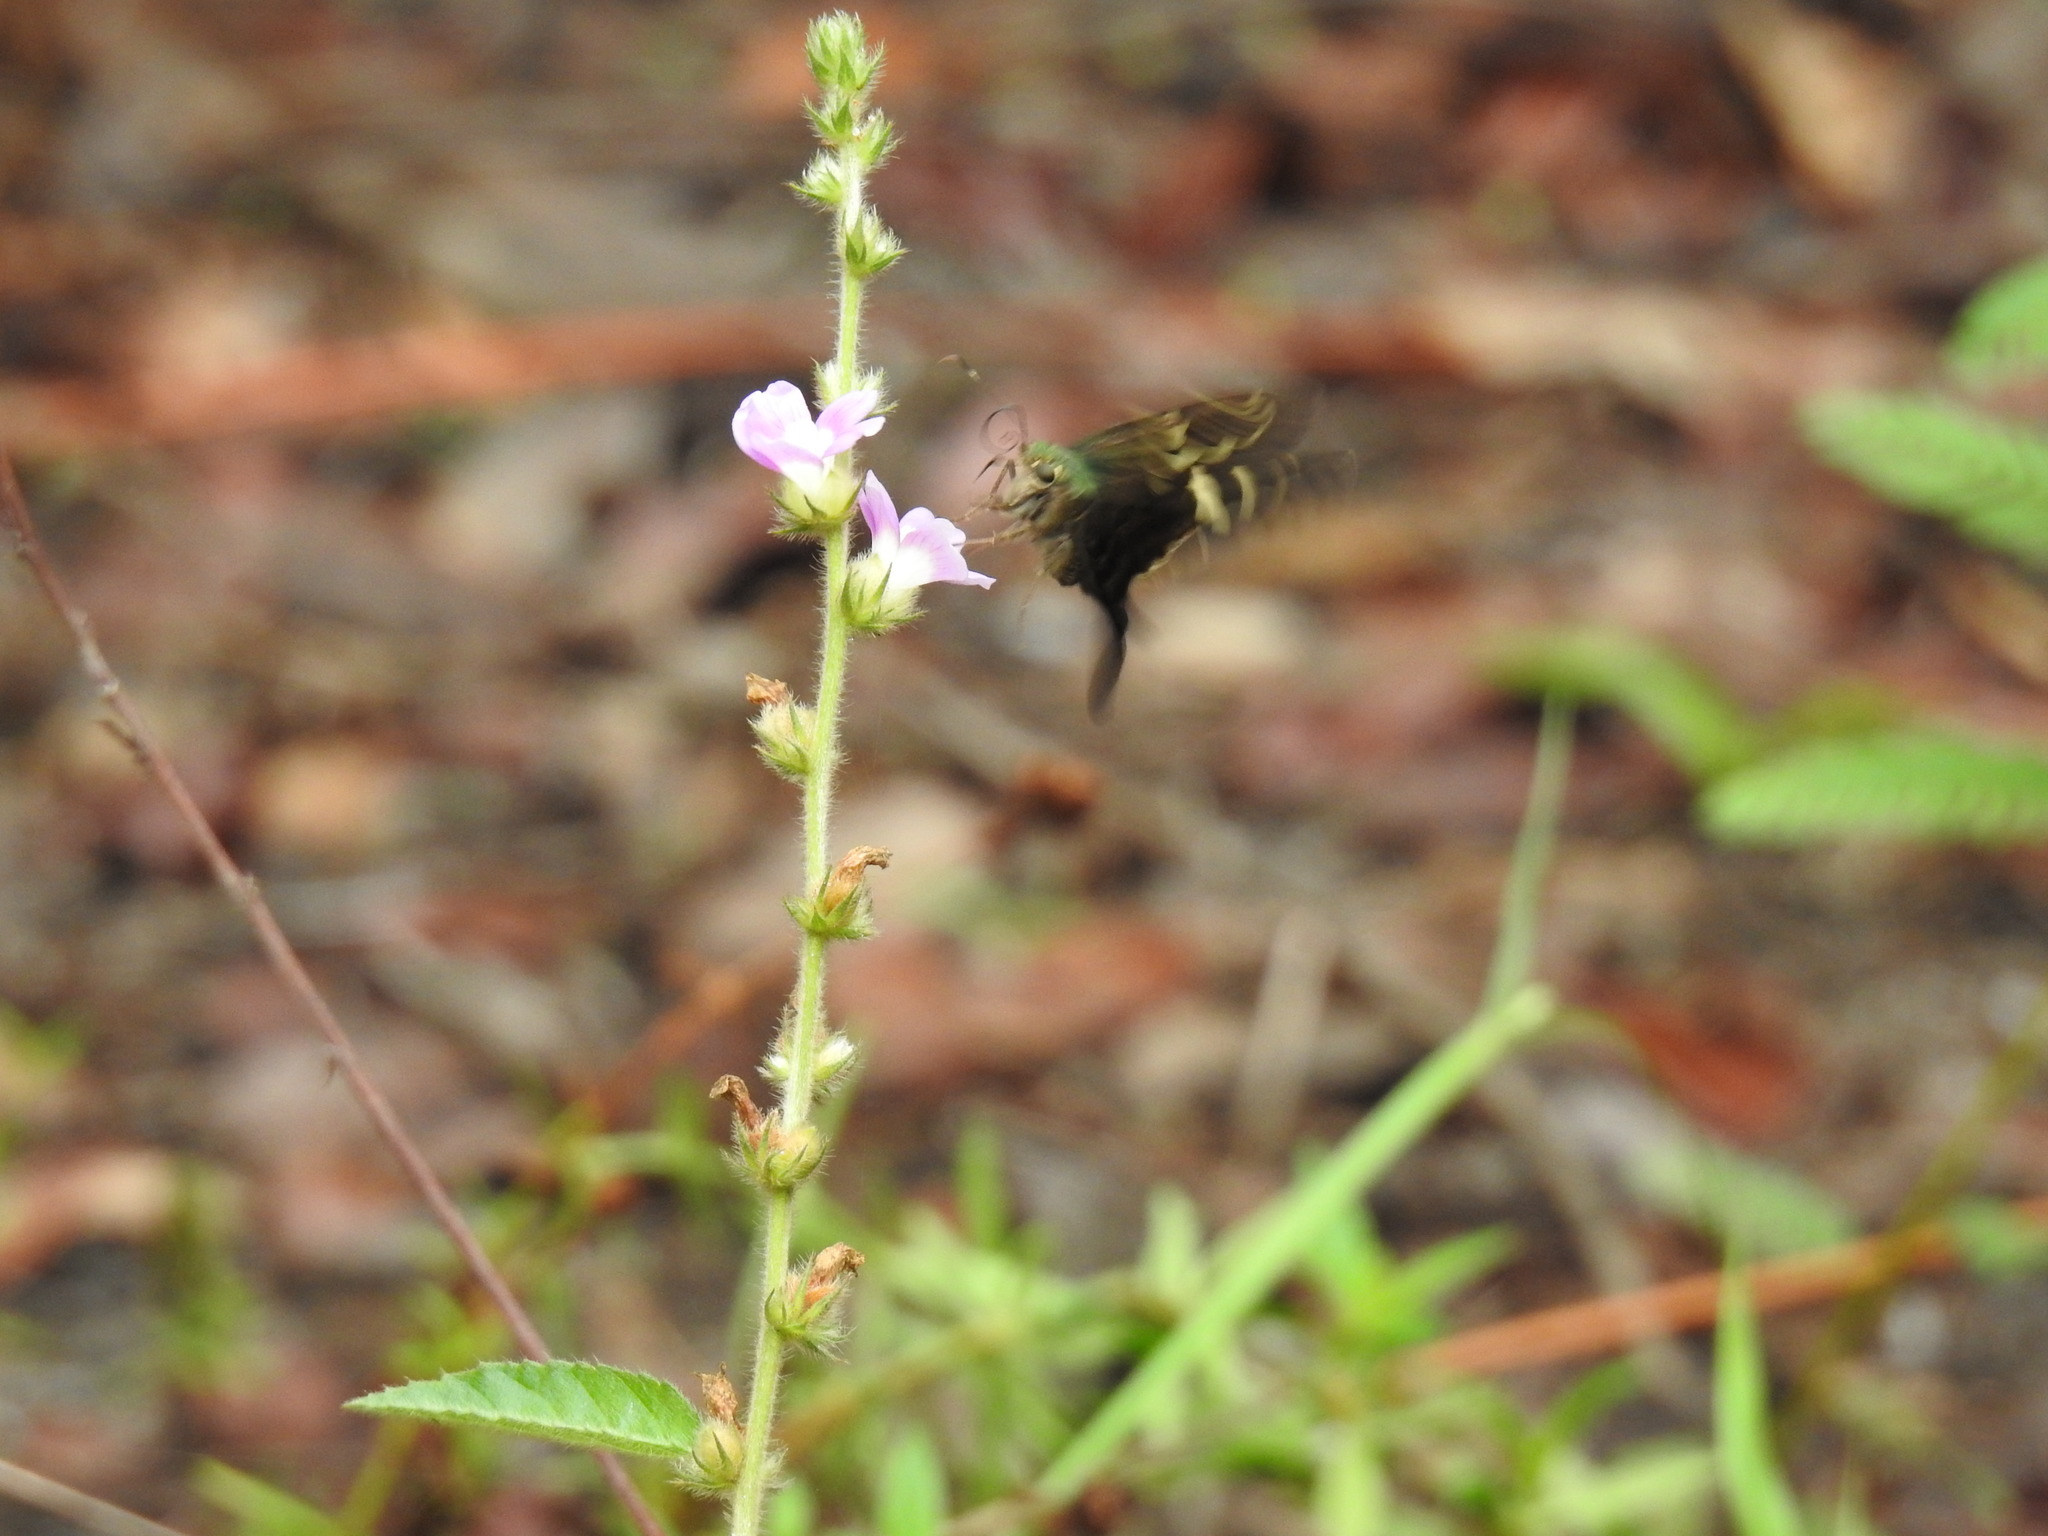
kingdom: Animalia
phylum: Arthropoda
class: Insecta
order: Lepidoptera
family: Hesperiidae
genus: Urbanus
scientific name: Urbanus proteus
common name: Long-tailed skipper
